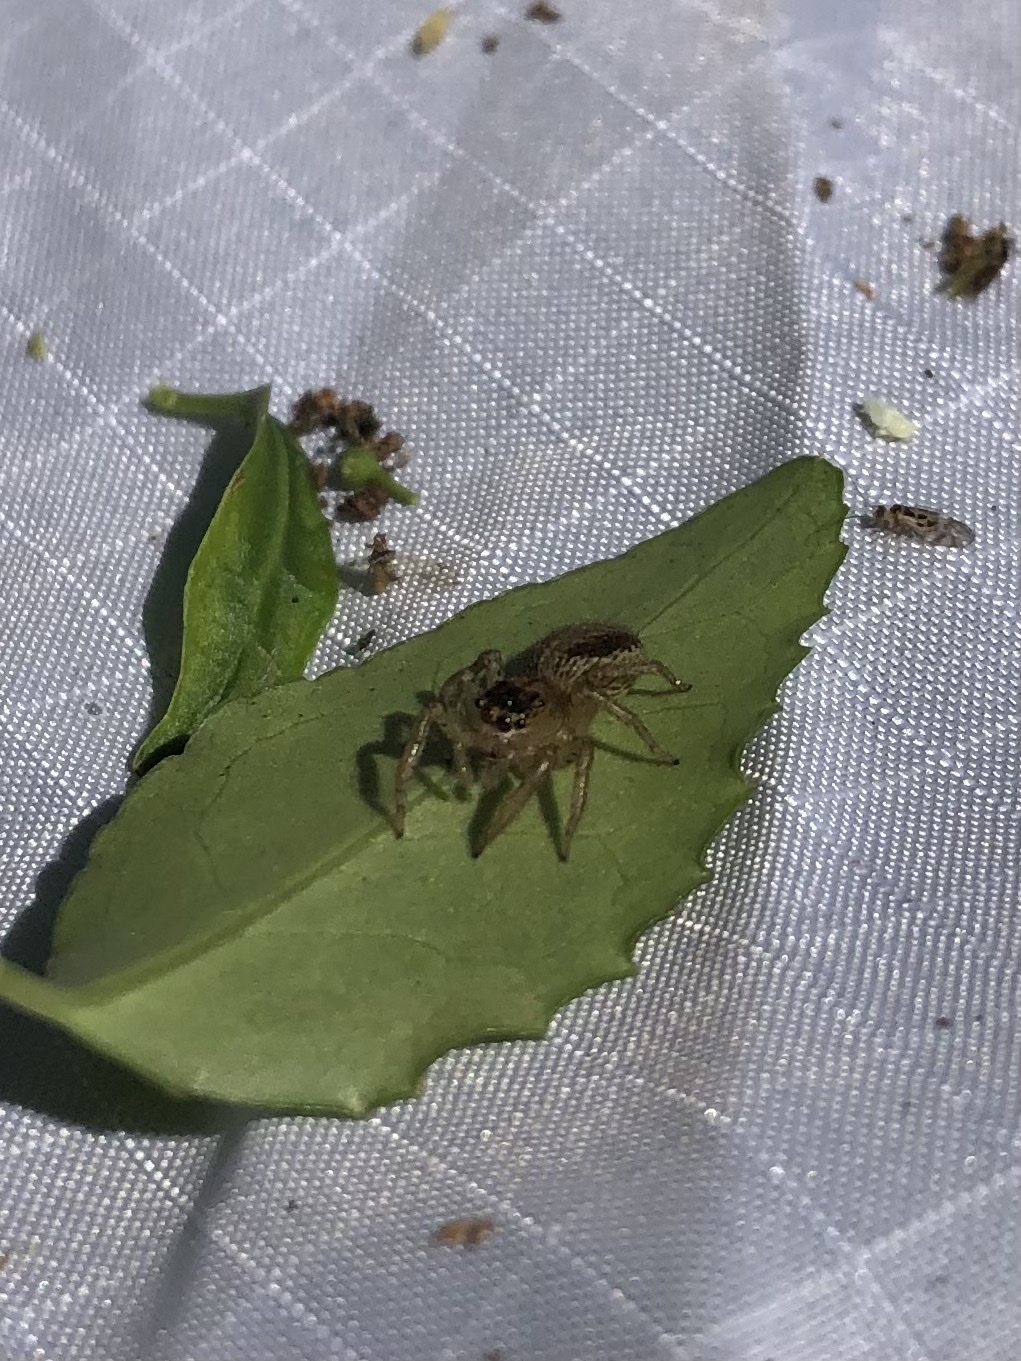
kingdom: Animalia
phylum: Arthropoda
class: Arachnida
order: Araneae
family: Salticidae
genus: Maevia
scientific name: Maevia inclemens
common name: Dimorphic jumper
